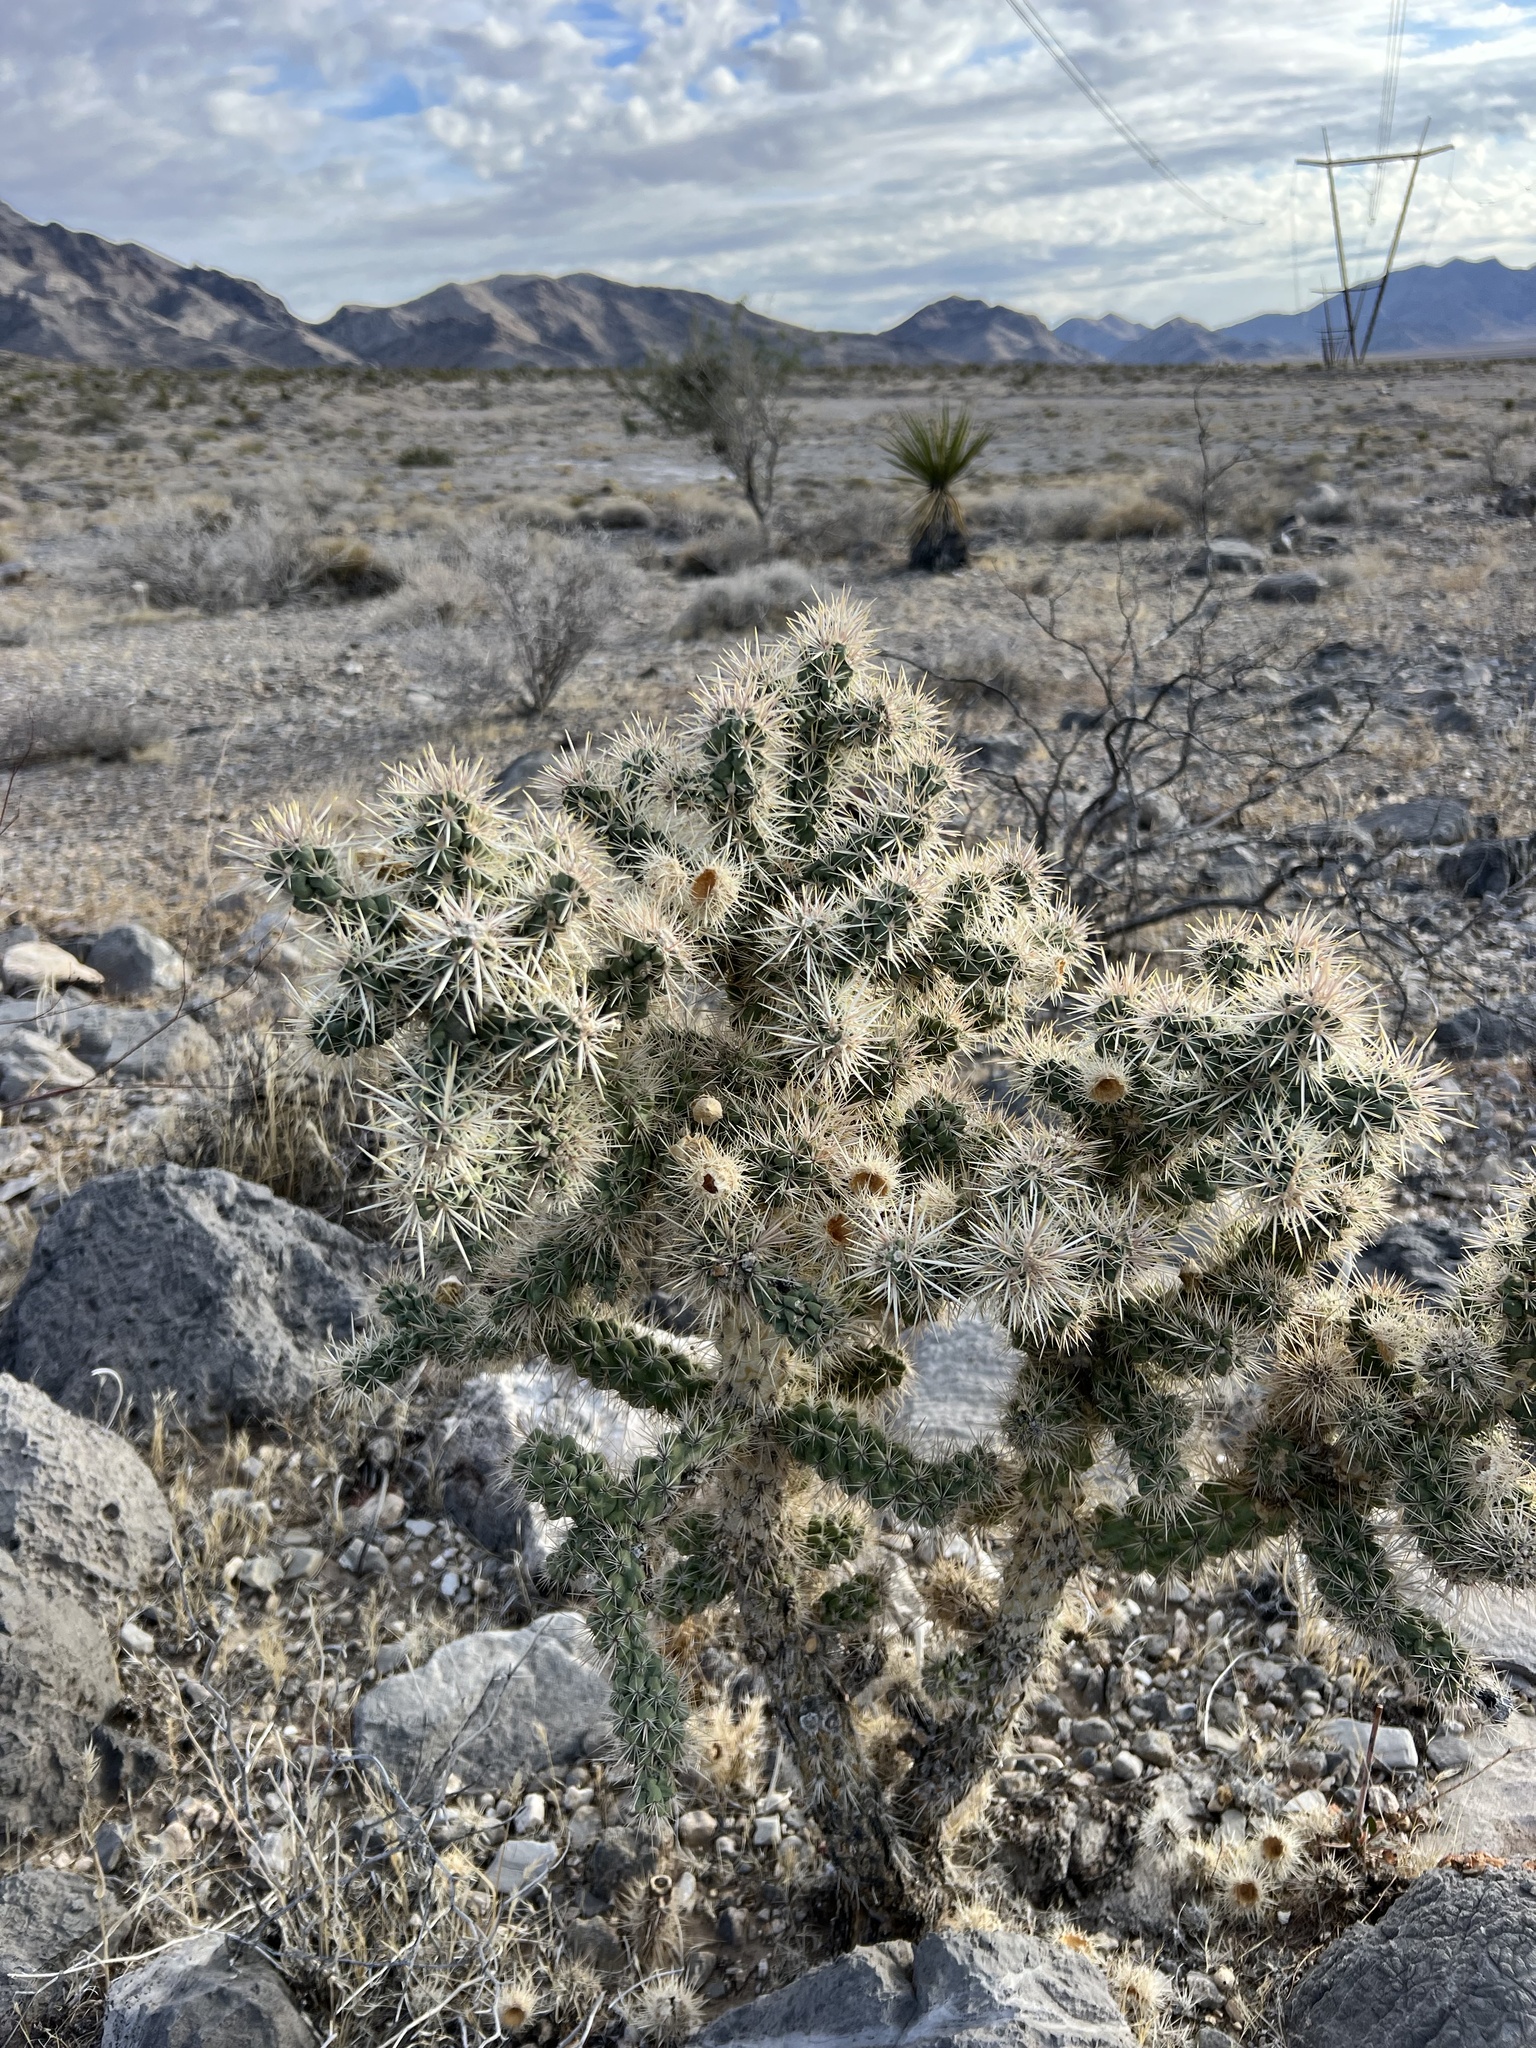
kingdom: Plantae
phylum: Tracheophyta
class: Magnoliopsida
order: Caryophyllales
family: Cactaceae
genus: Cylindropuntia
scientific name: Cylindropuntia echinocarpa
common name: Ground cholla
